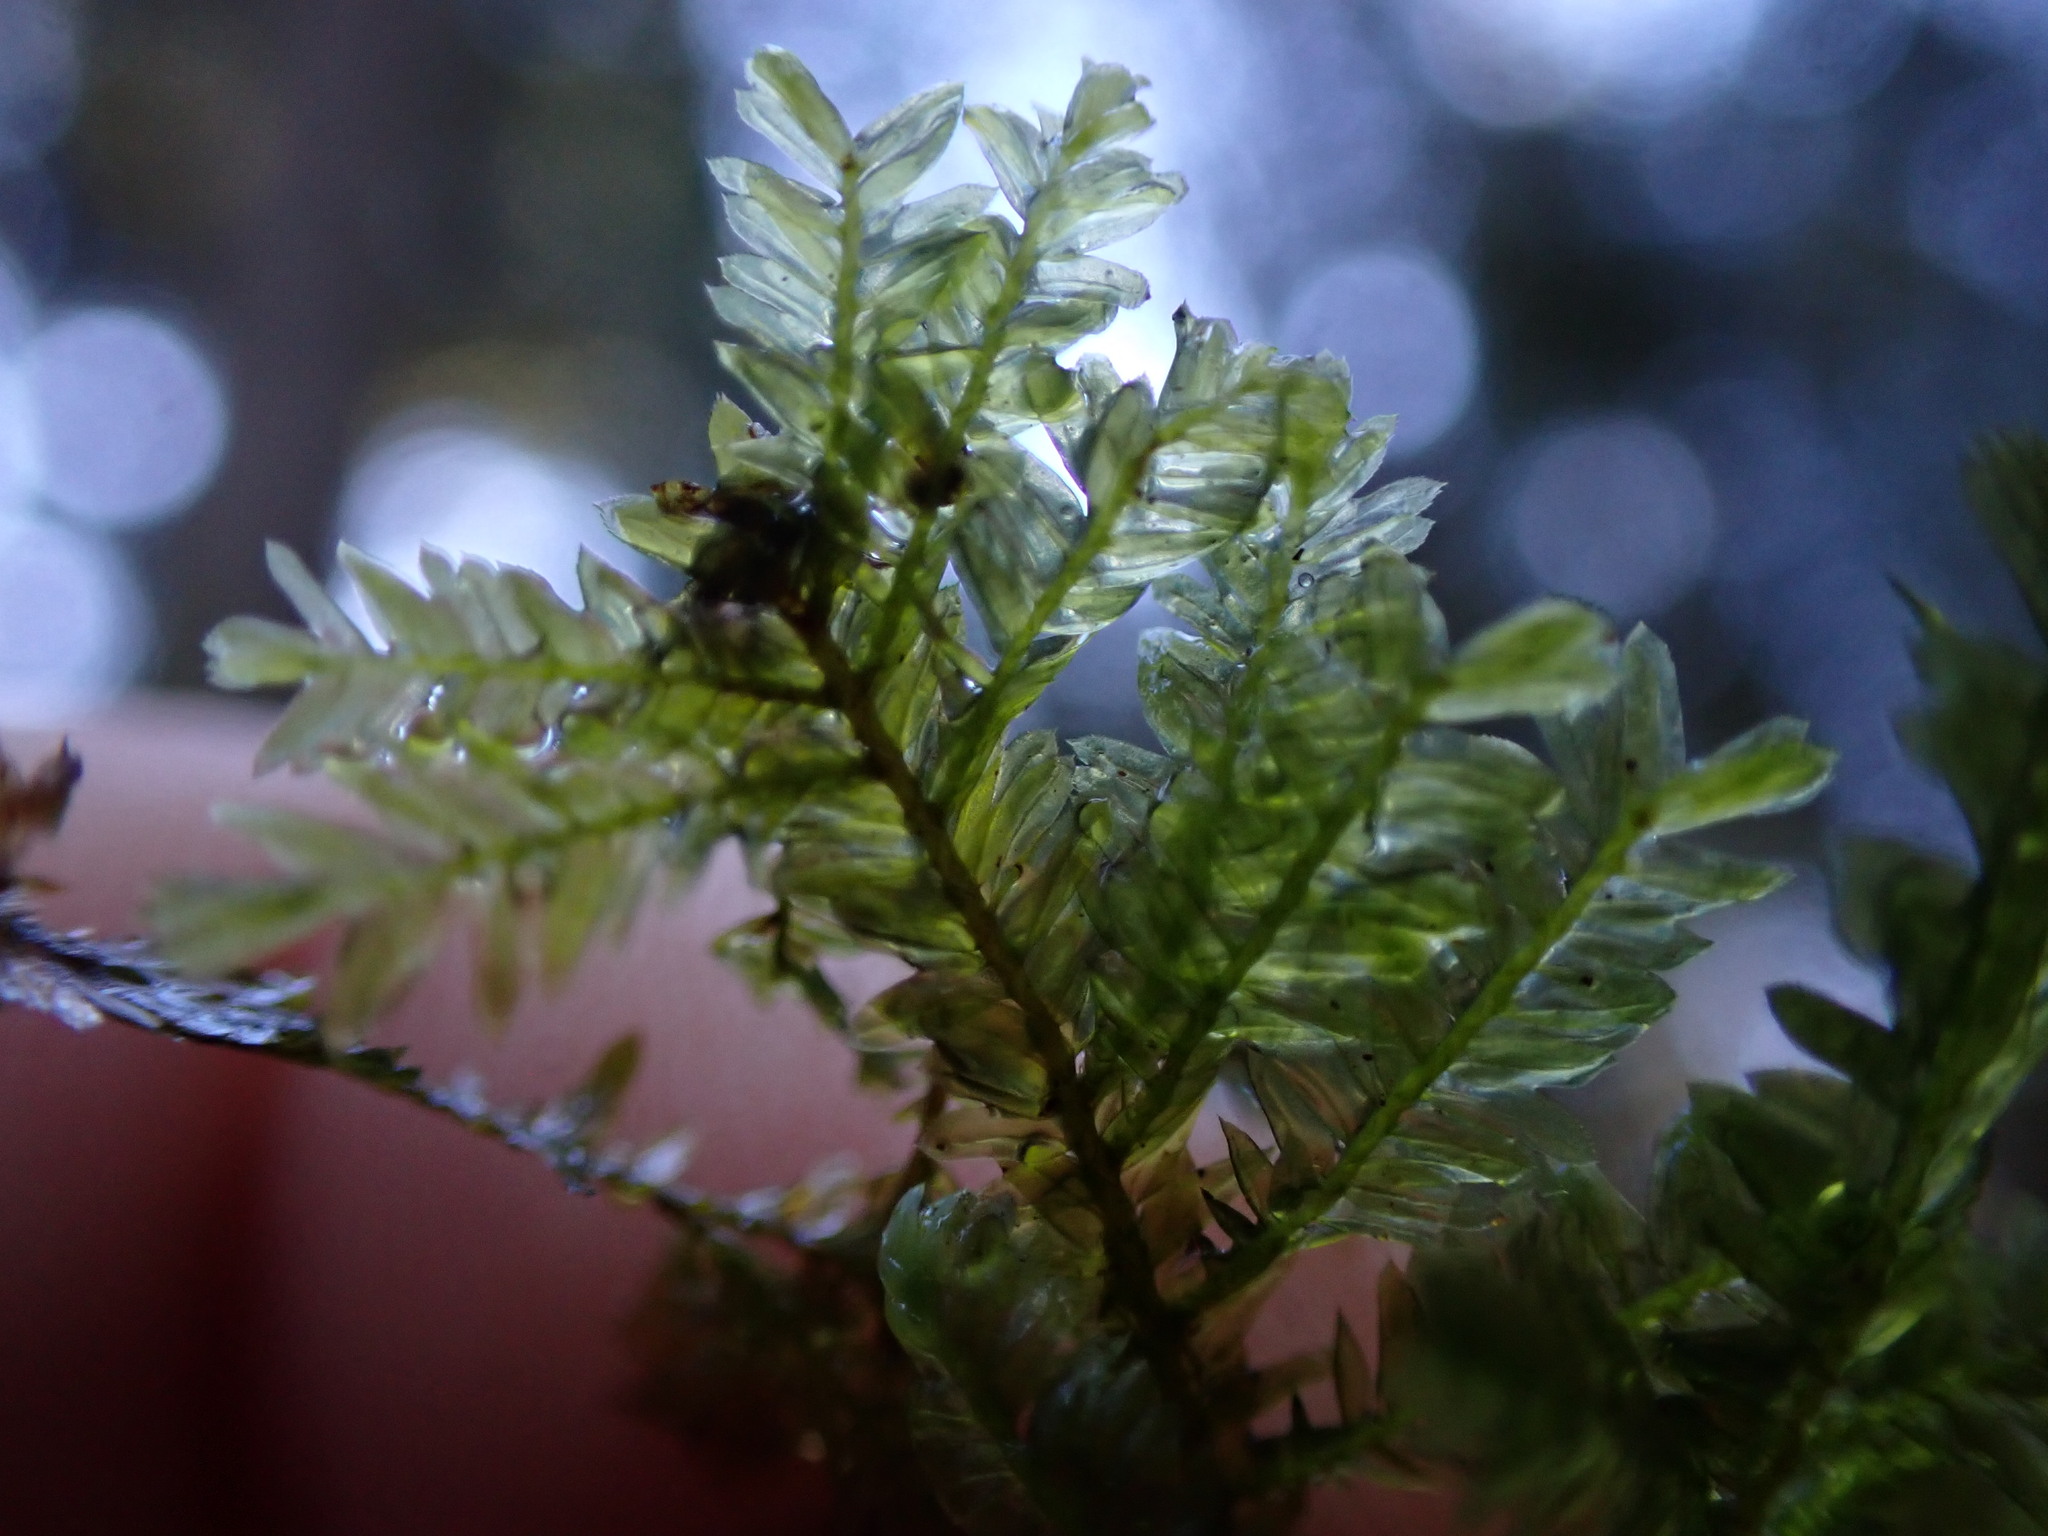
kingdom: Plantae
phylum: Bryophyta
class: Bryopsida
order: Hypnales
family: Neckeraceae
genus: Dannorrisia
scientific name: Dannorrisia bigelovii
